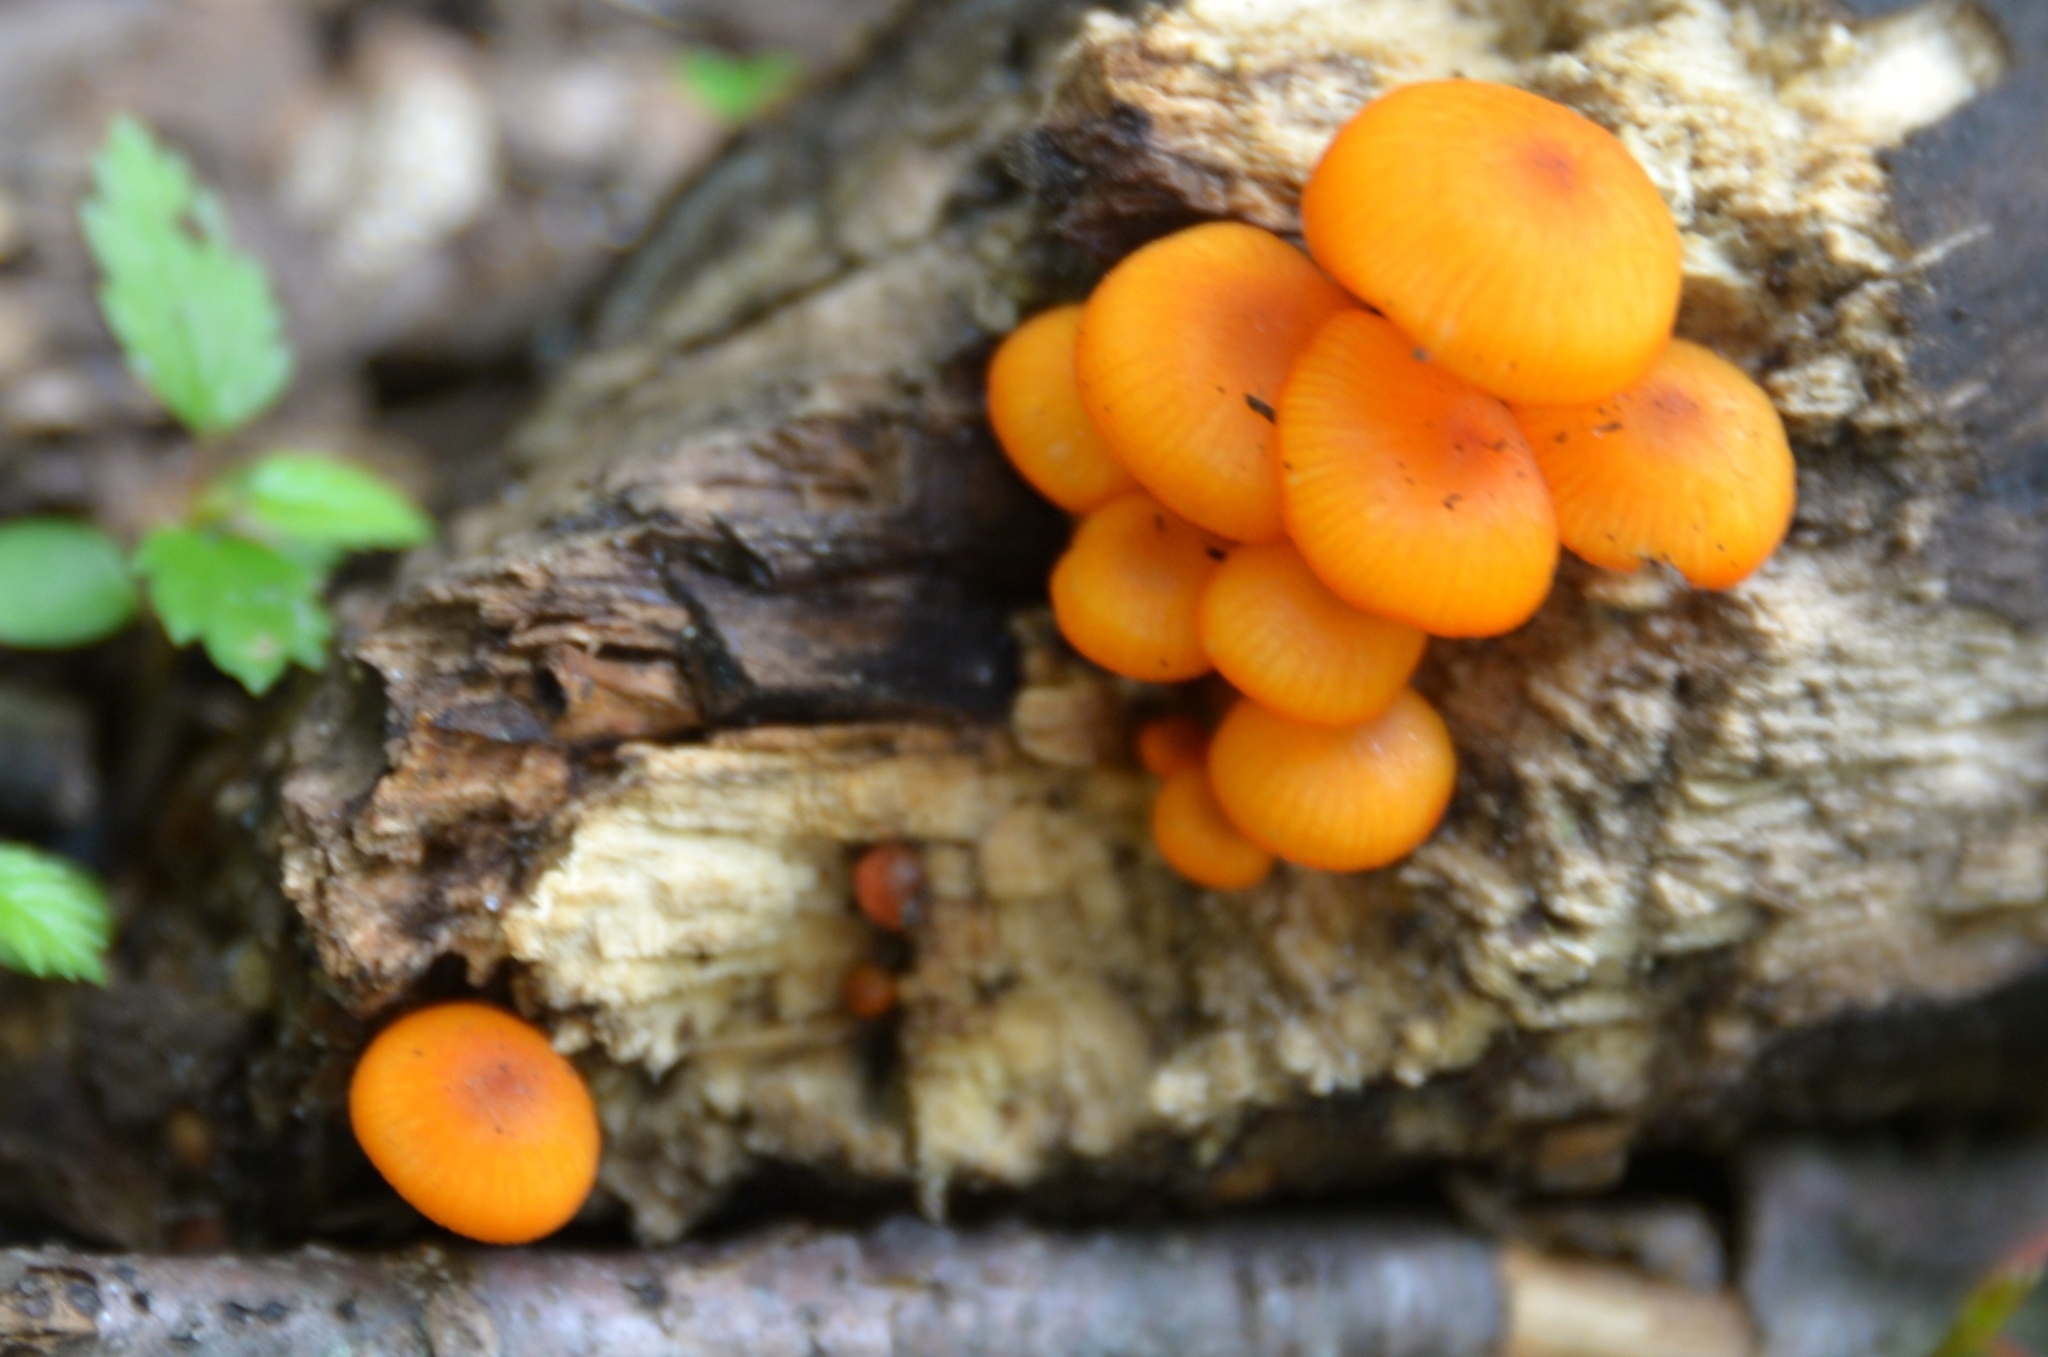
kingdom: Fungi
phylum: Basidiomycota
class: Agaricomycetes
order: Agaricales
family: Mycenaceae
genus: Mycena
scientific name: Mycena leaiana
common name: Orange mycena
